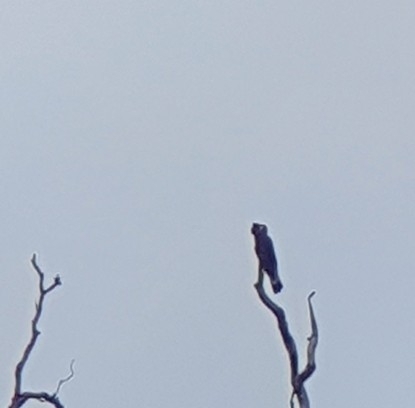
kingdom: Animalia
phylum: Chordata
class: Aves
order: Psittaciformes
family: Cacatuidae
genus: Zanda
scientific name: Zanda baudinii
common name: Long-billed black-cockatoo
